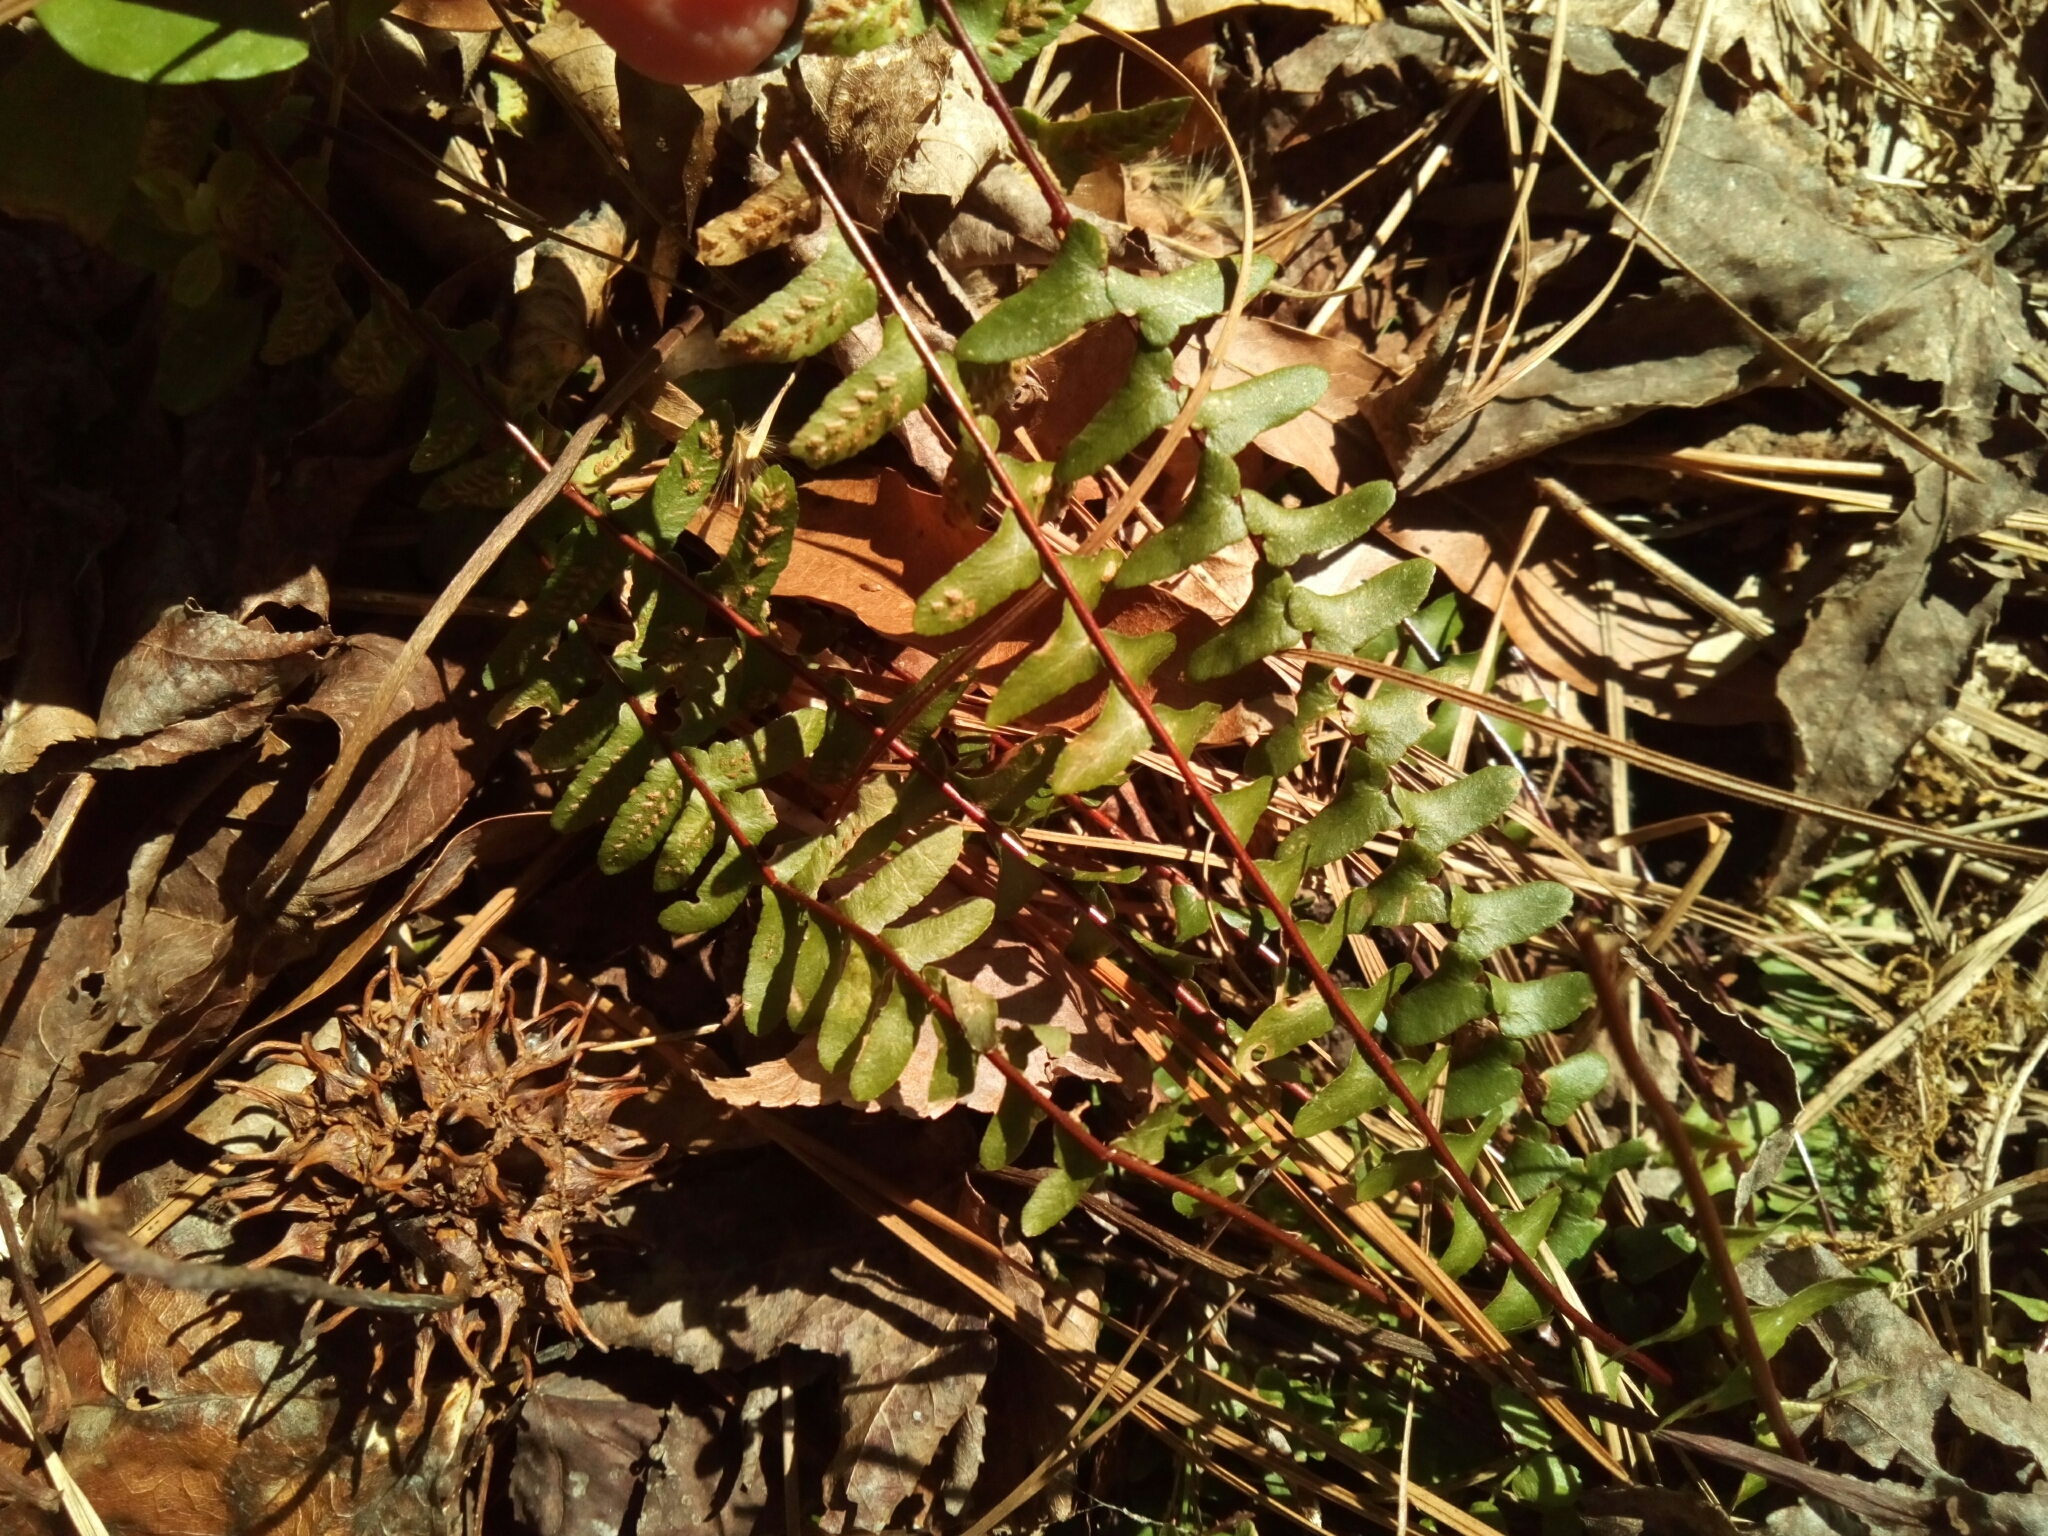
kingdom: Plantae
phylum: Tracheophyta
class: Polypodiopsida
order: Polypodiales
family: Aspleniaceae
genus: Asplenium
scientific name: Asplenium platyneuron
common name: Ebony spleenwort
